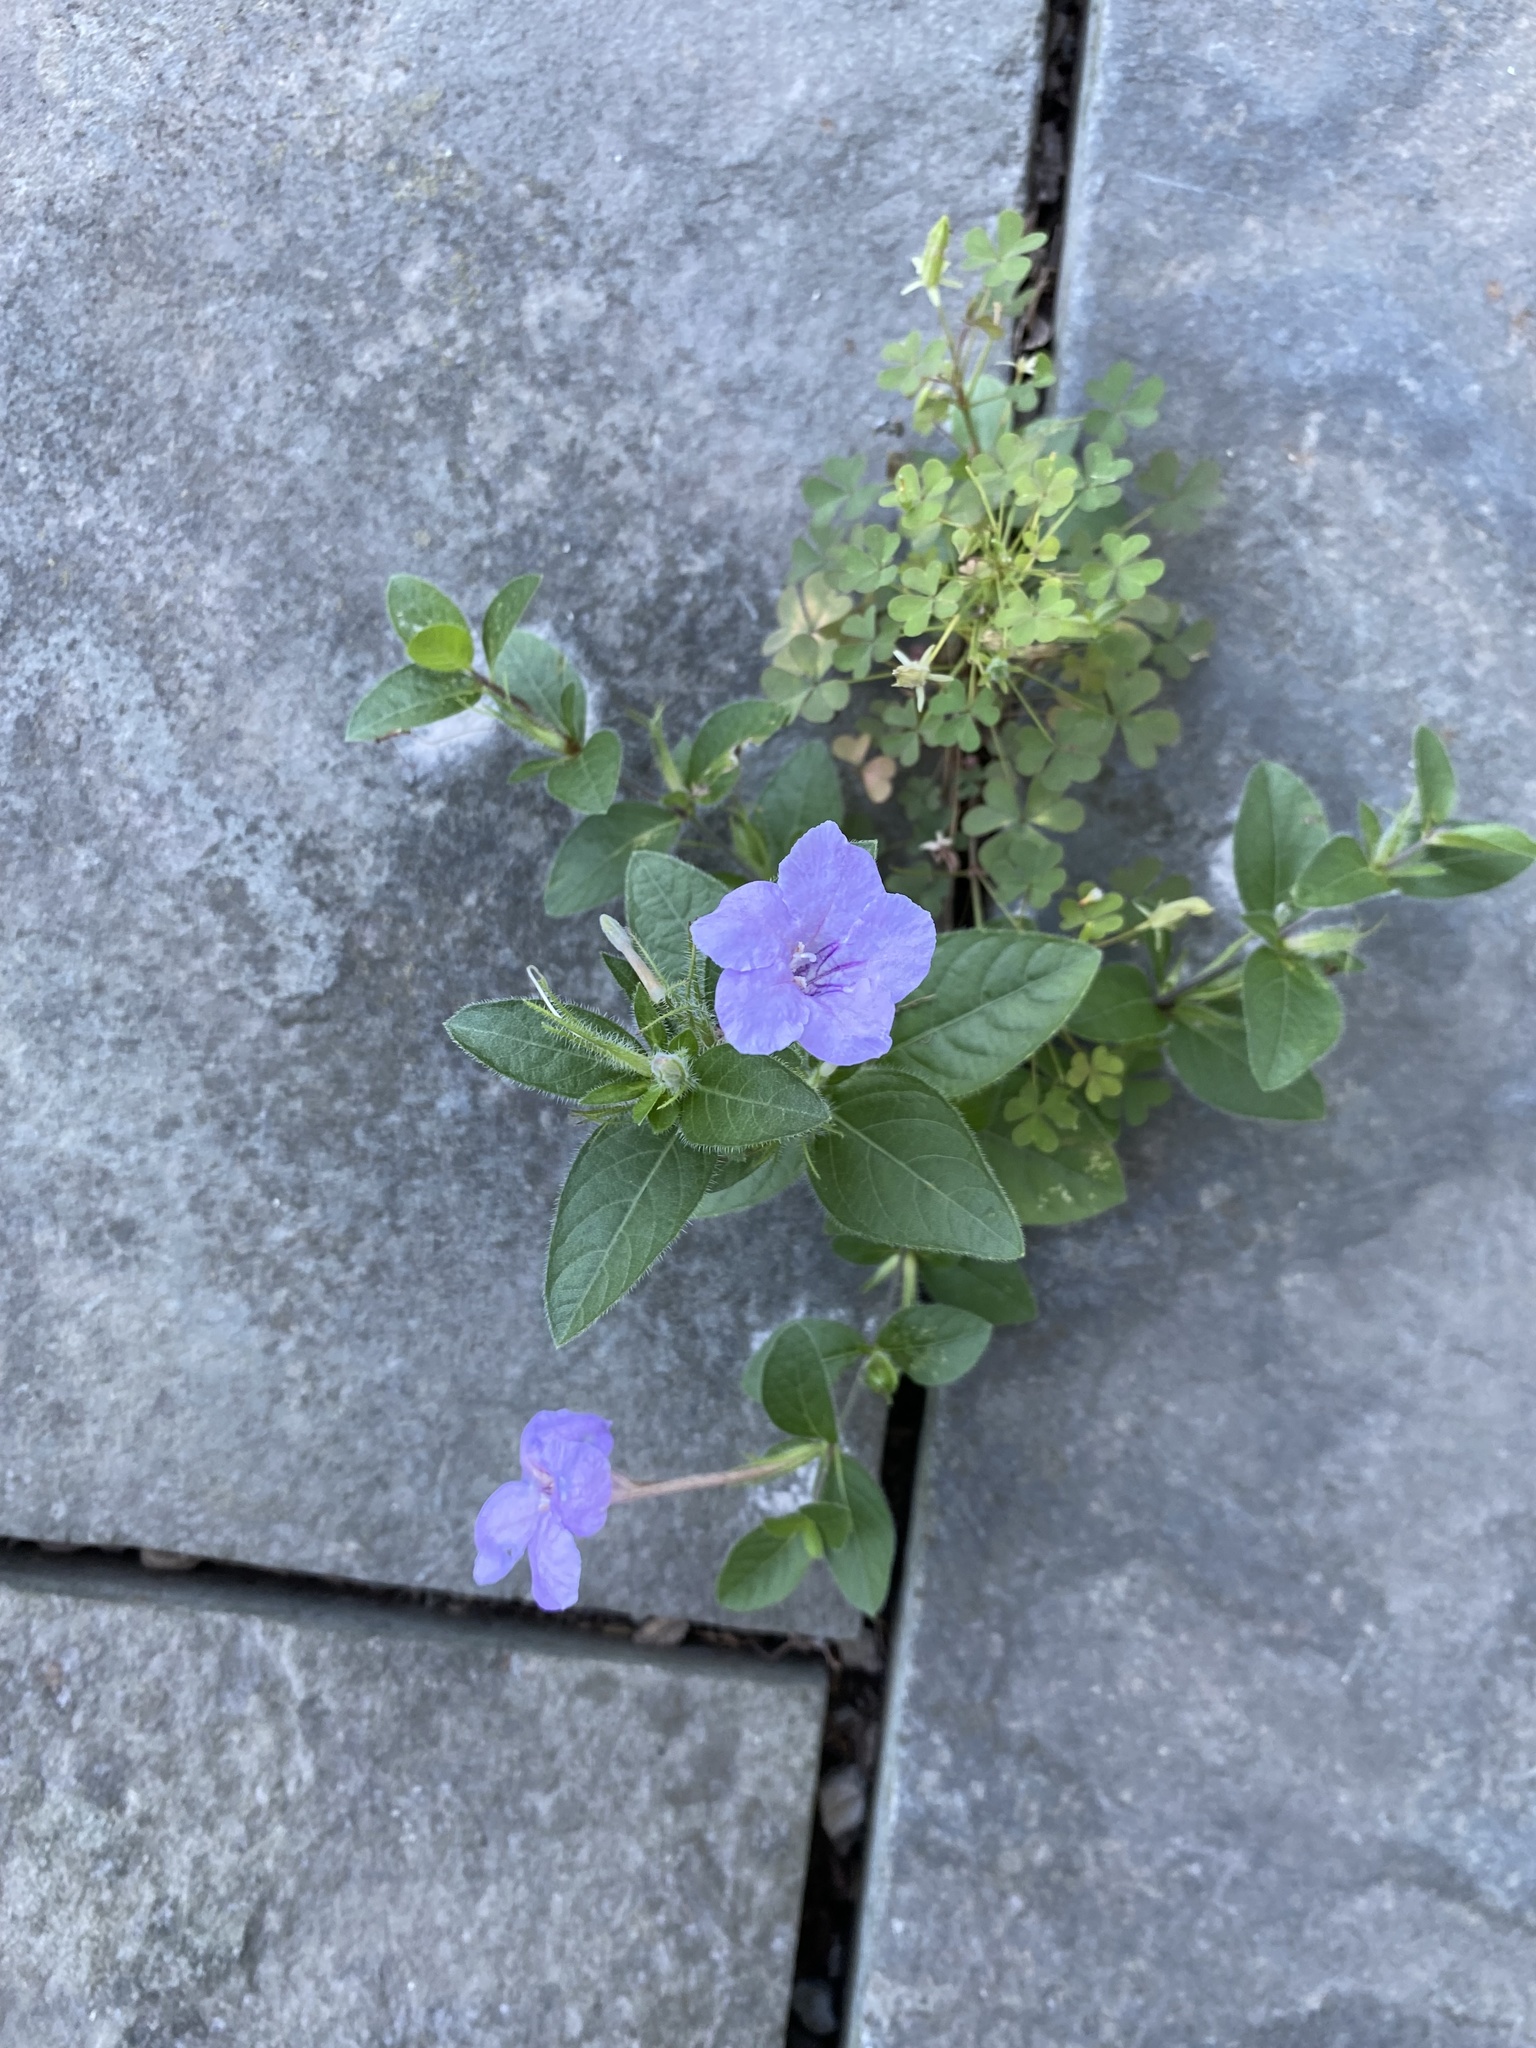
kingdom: Plantae
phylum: Tracheophyta
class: Magnoliopsida
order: Lamiales
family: Acanthaceae
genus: Ruellia
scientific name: Ruellia humilis
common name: Fringe-leaf ruellia
